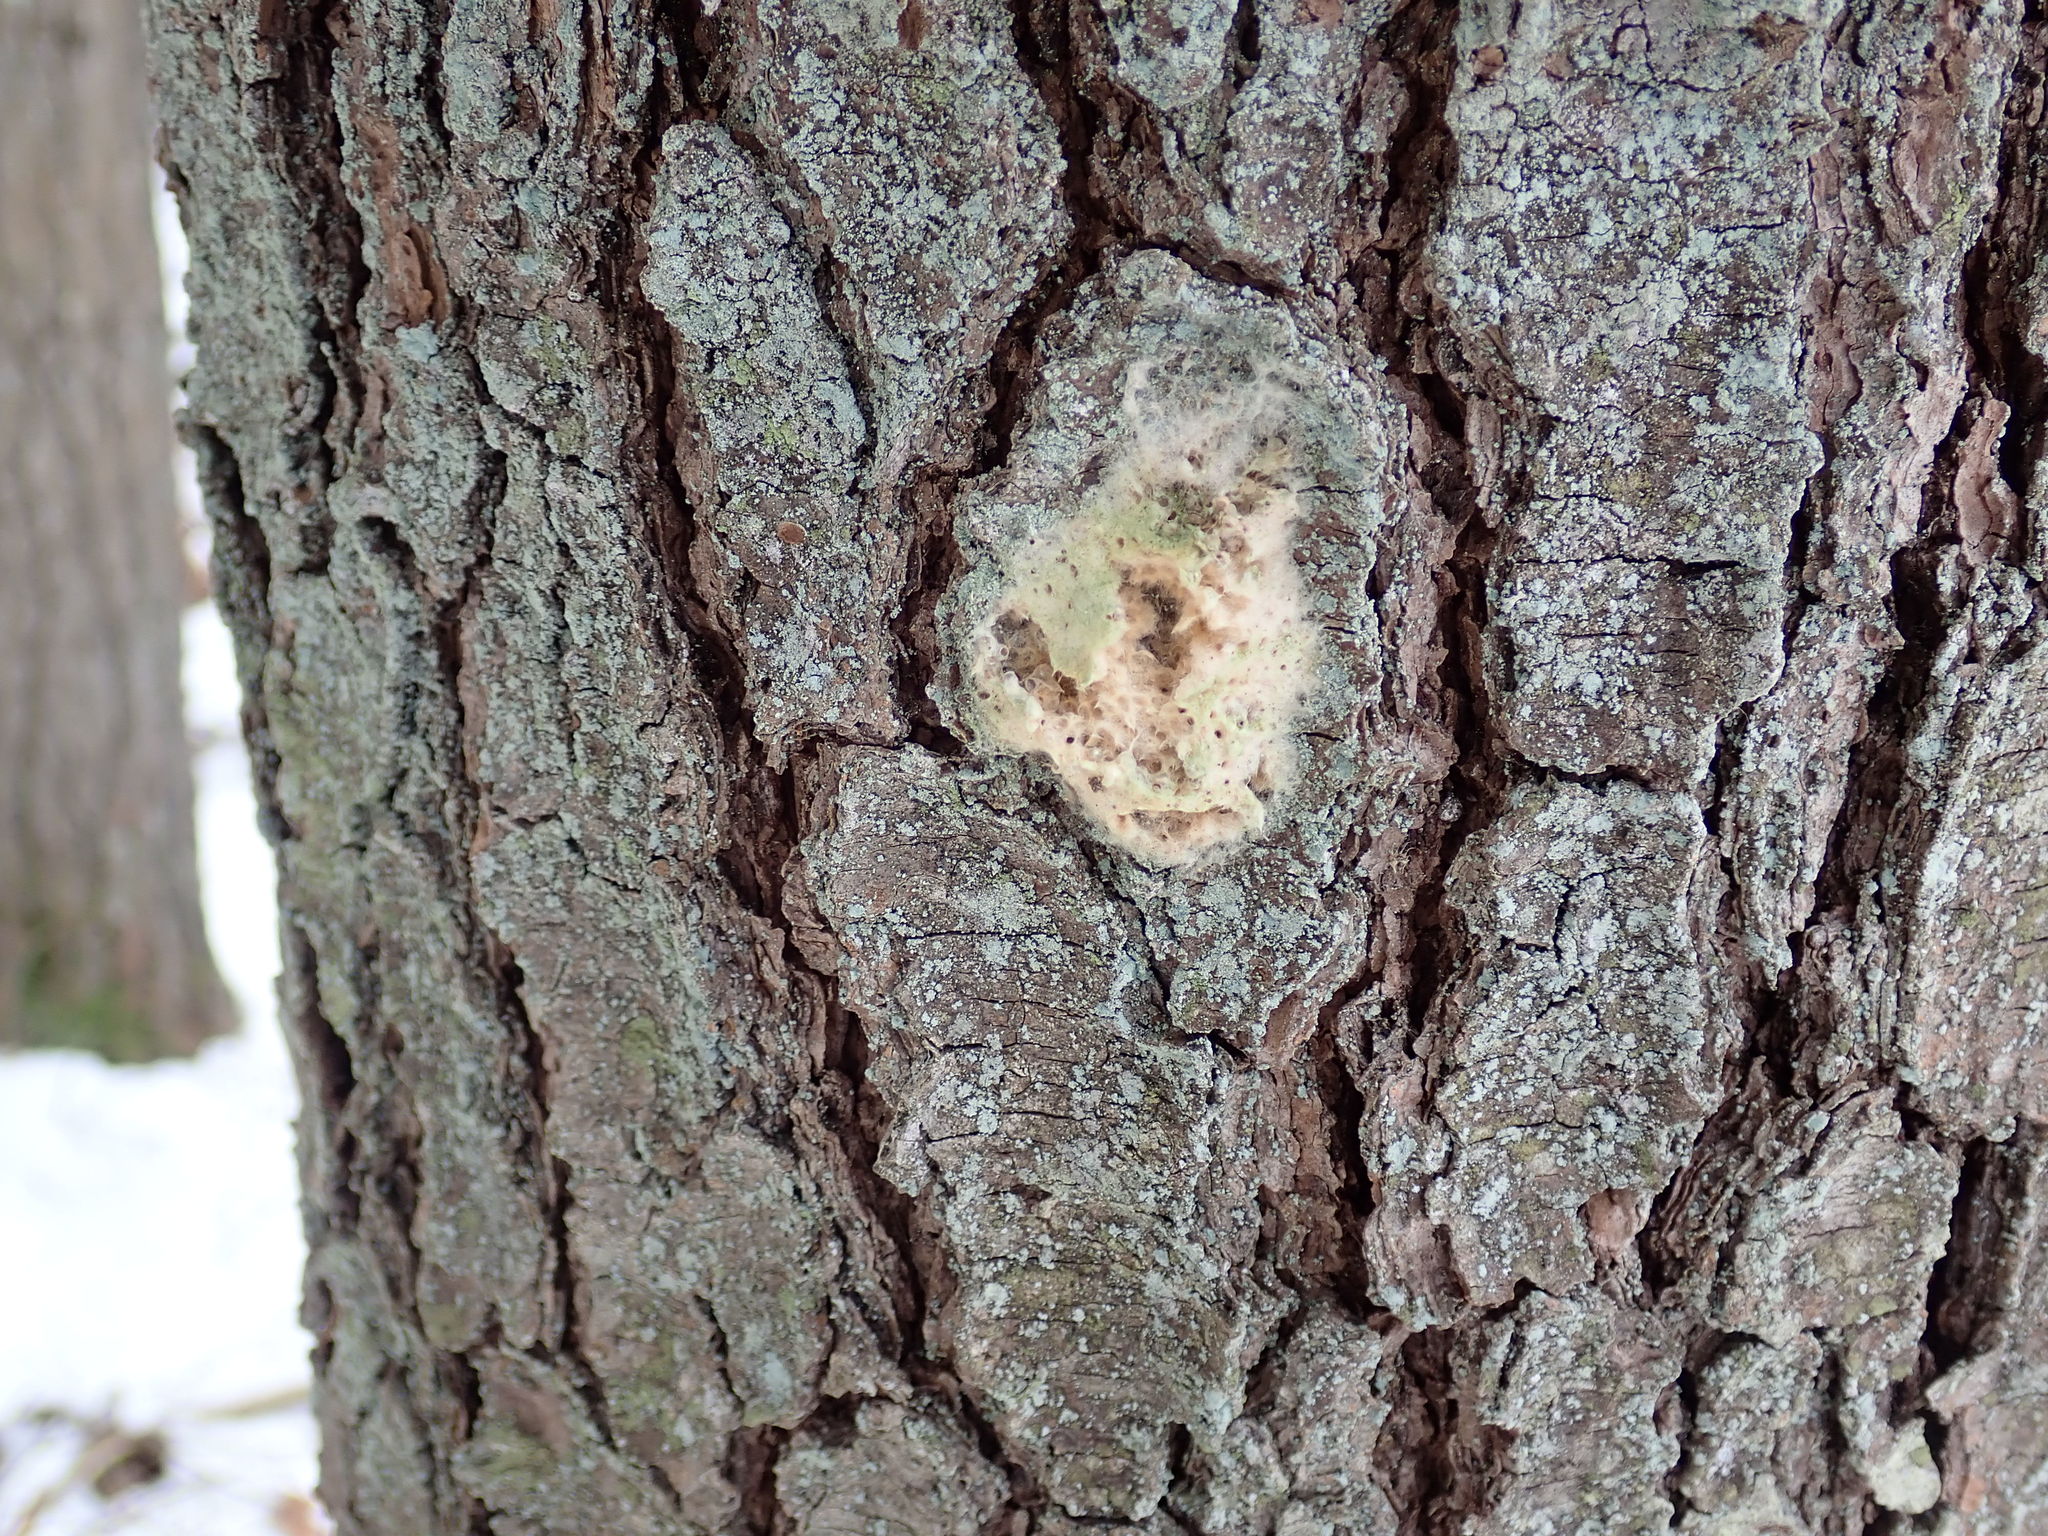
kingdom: Animalia
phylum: Arthropoda
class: Insecta
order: Lepidoptera
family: Erebidae
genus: Lymantria
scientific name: Lymantria dispar
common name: Gypsy moth
